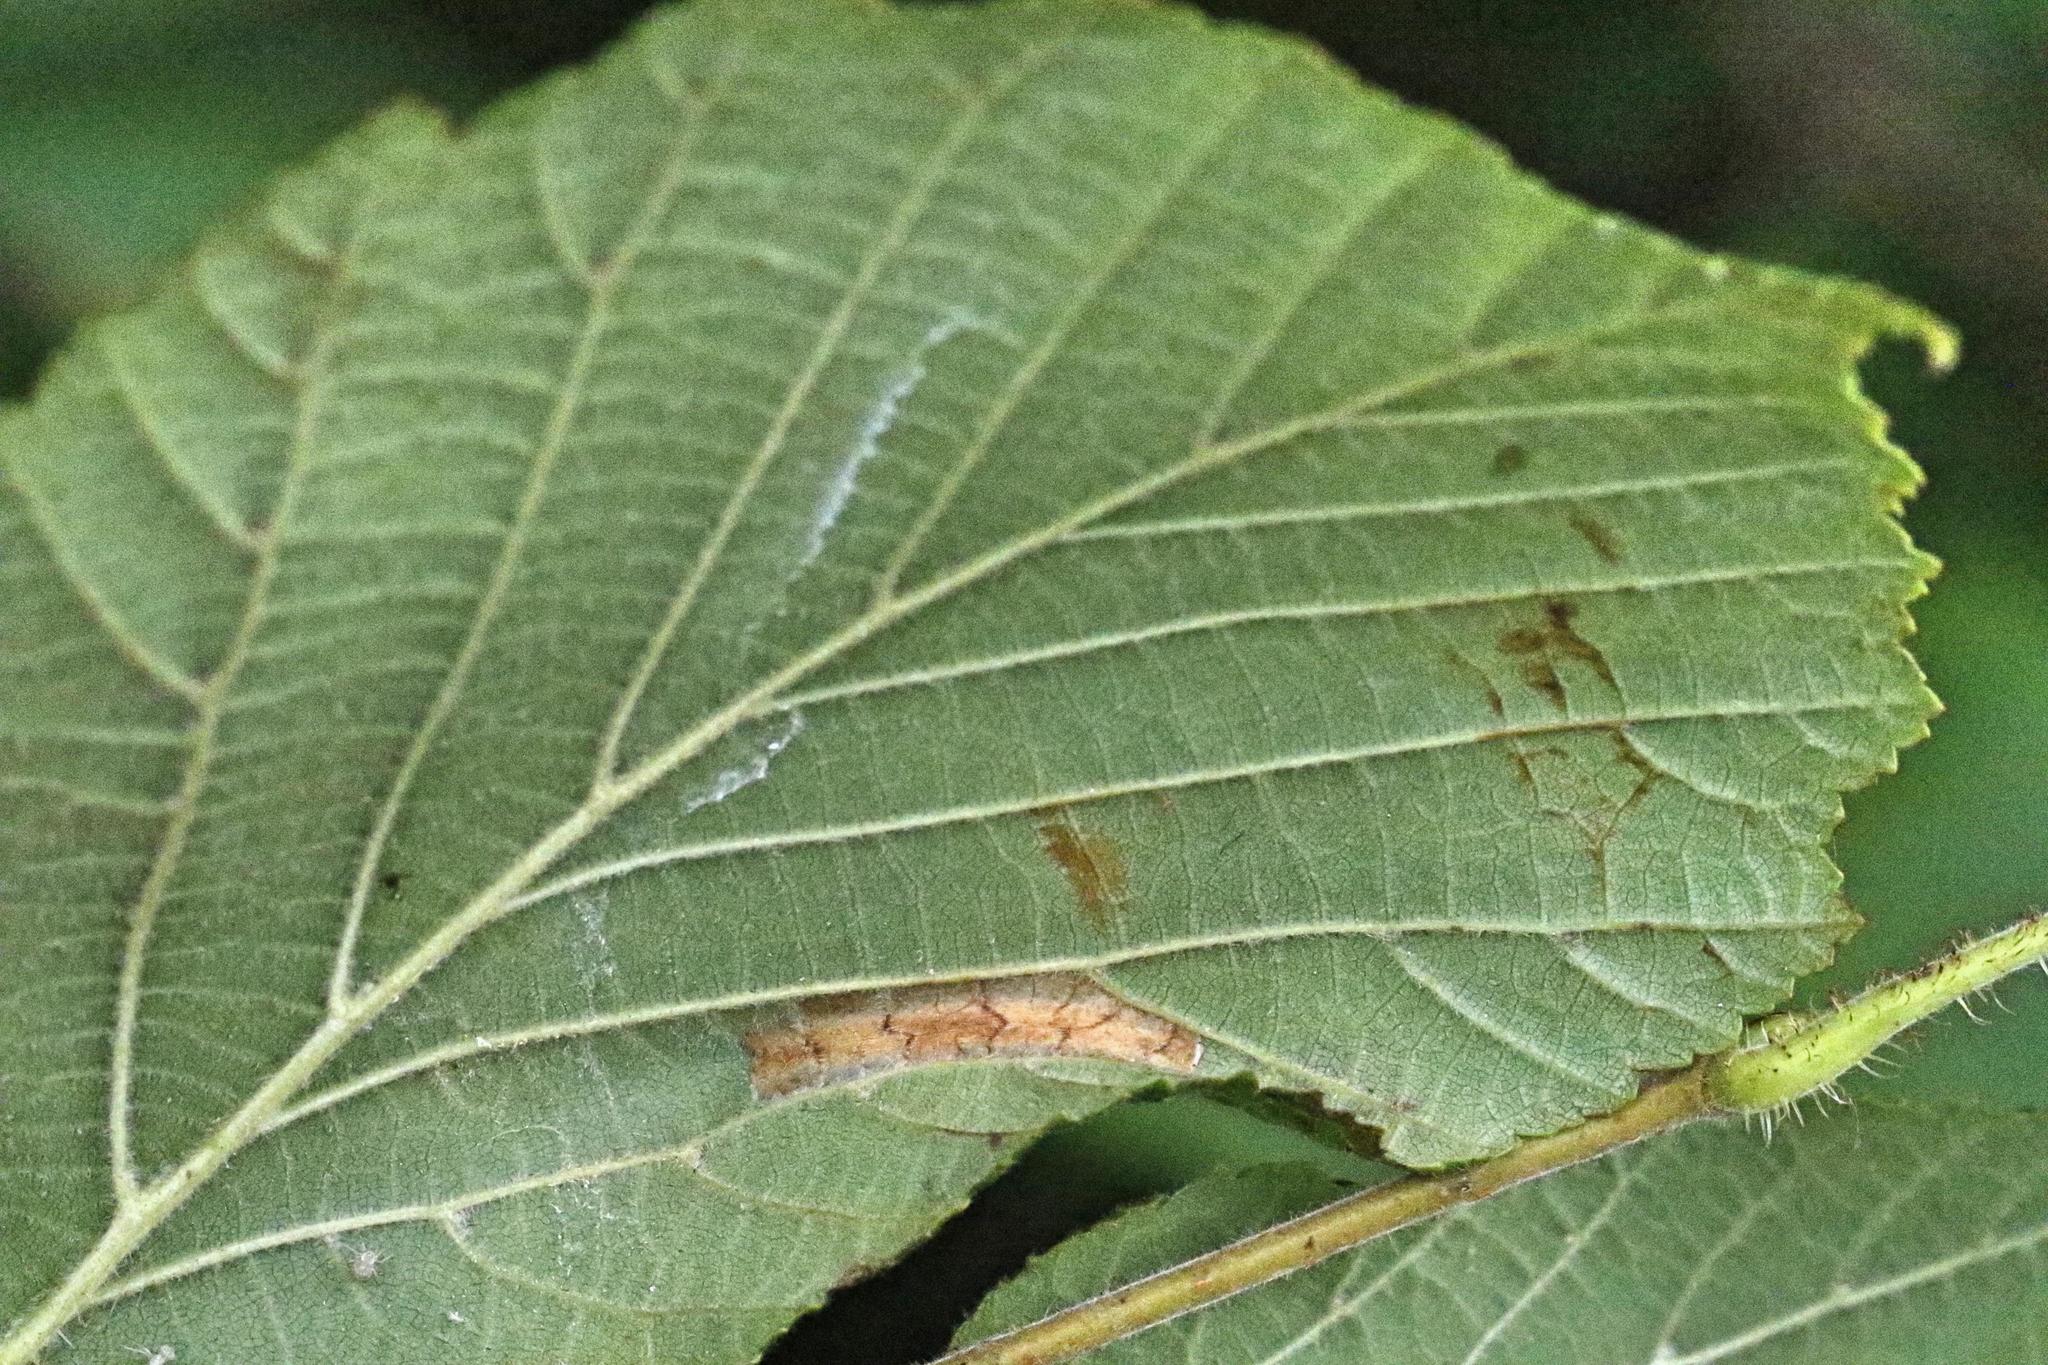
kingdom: Animalia
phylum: Arthropoda
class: Insecta
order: Lepidoptera
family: Gracillariidae
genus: Phyllonorycter
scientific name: Phyllonorycter nicellii
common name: Red hazel midget
